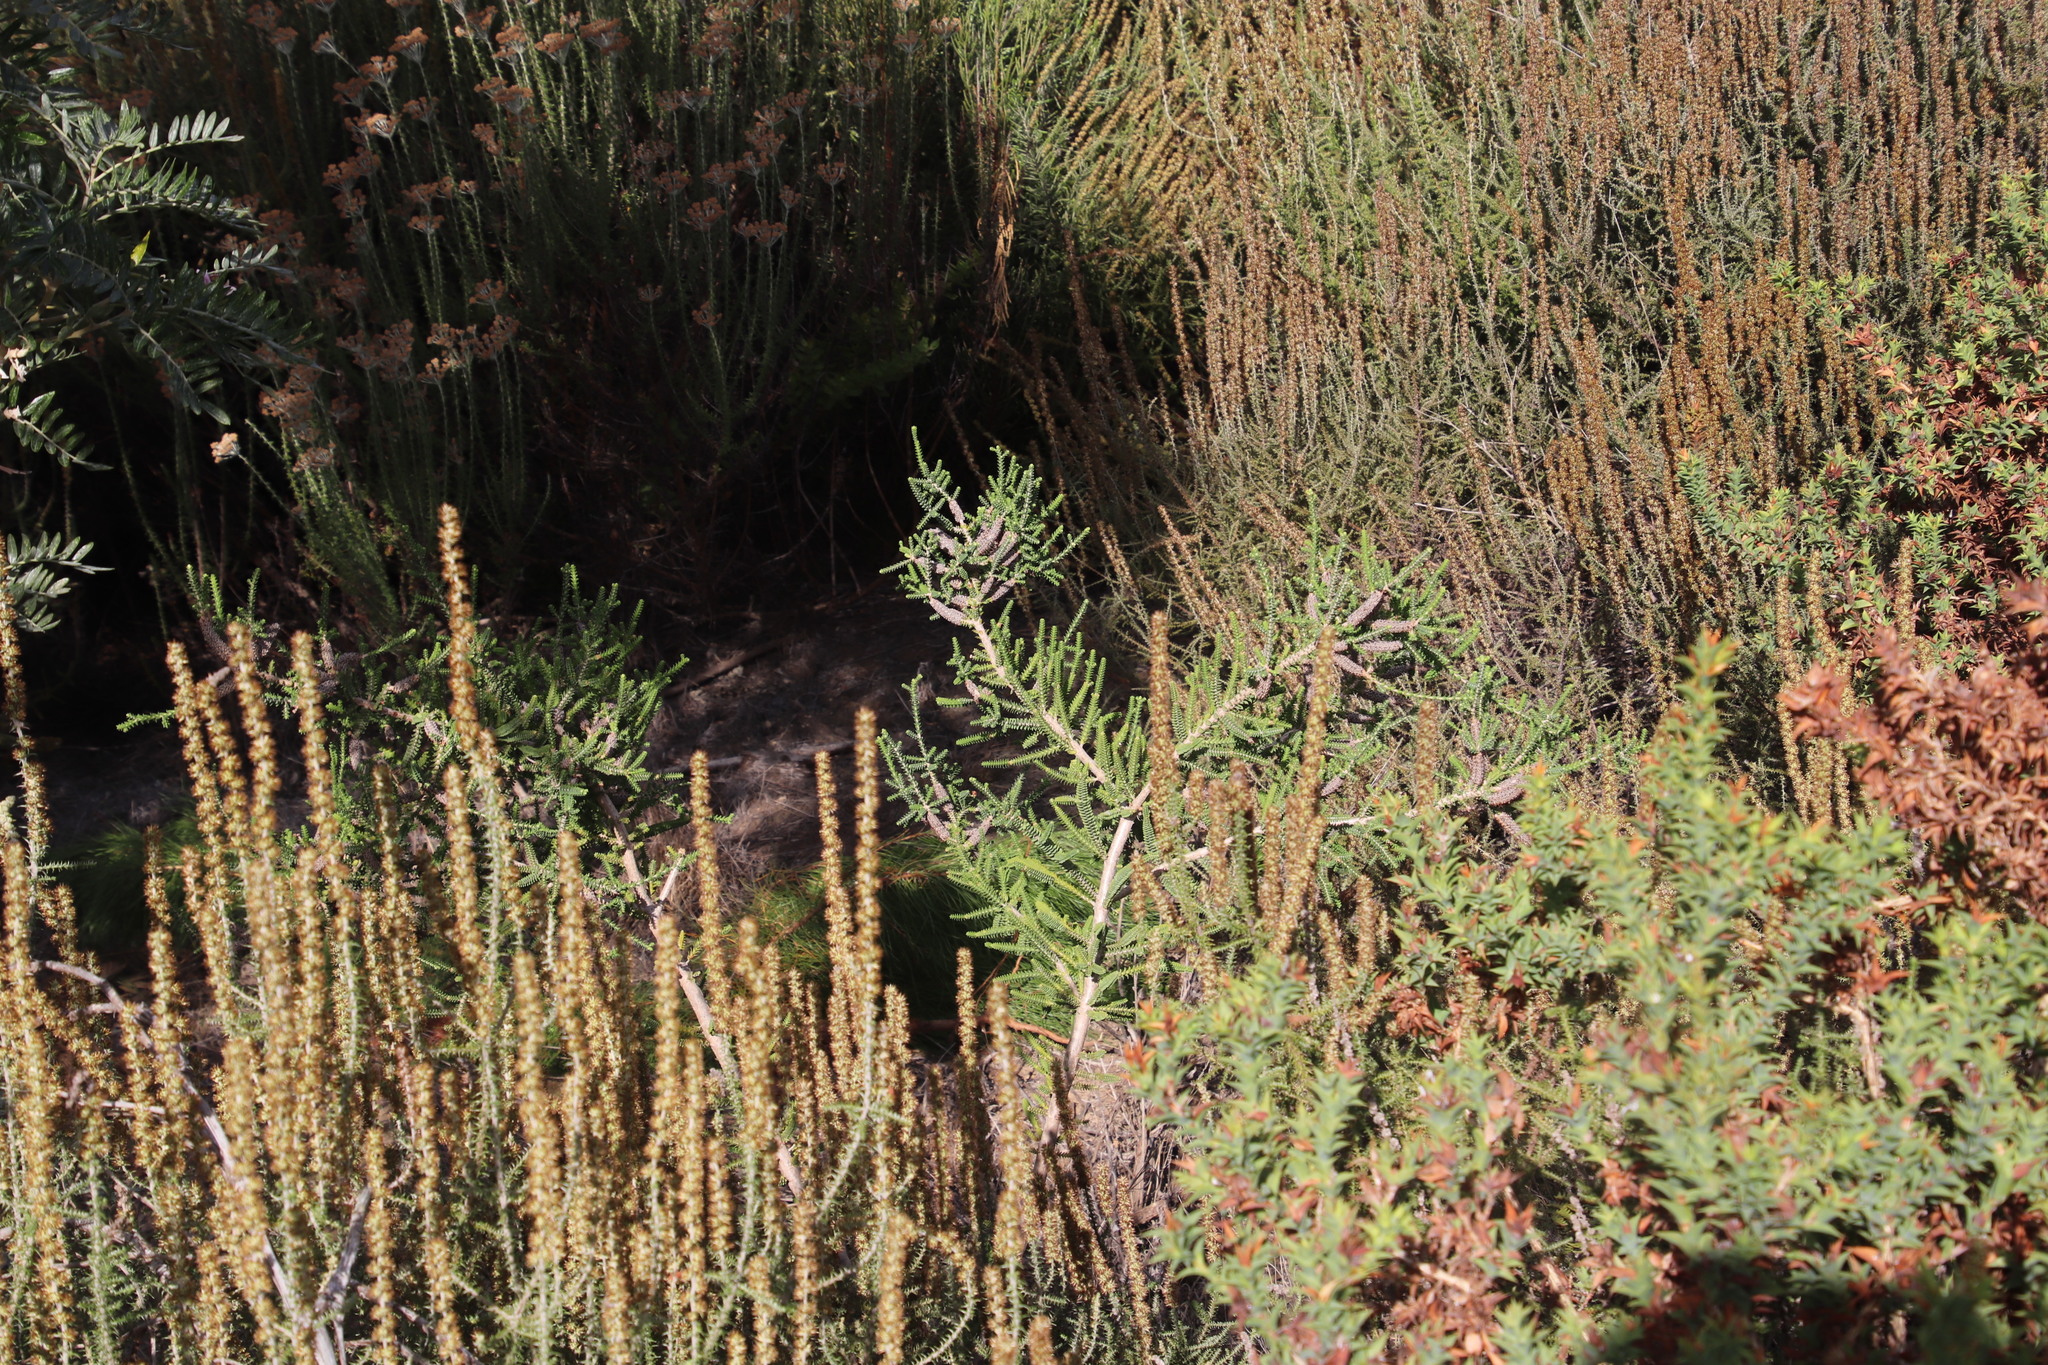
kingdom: Plantae
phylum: Tracheophyta
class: Magnoliopsida
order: Myrtales
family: Myrtaceae
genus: Melaleuca
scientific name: Melaleuca densa
